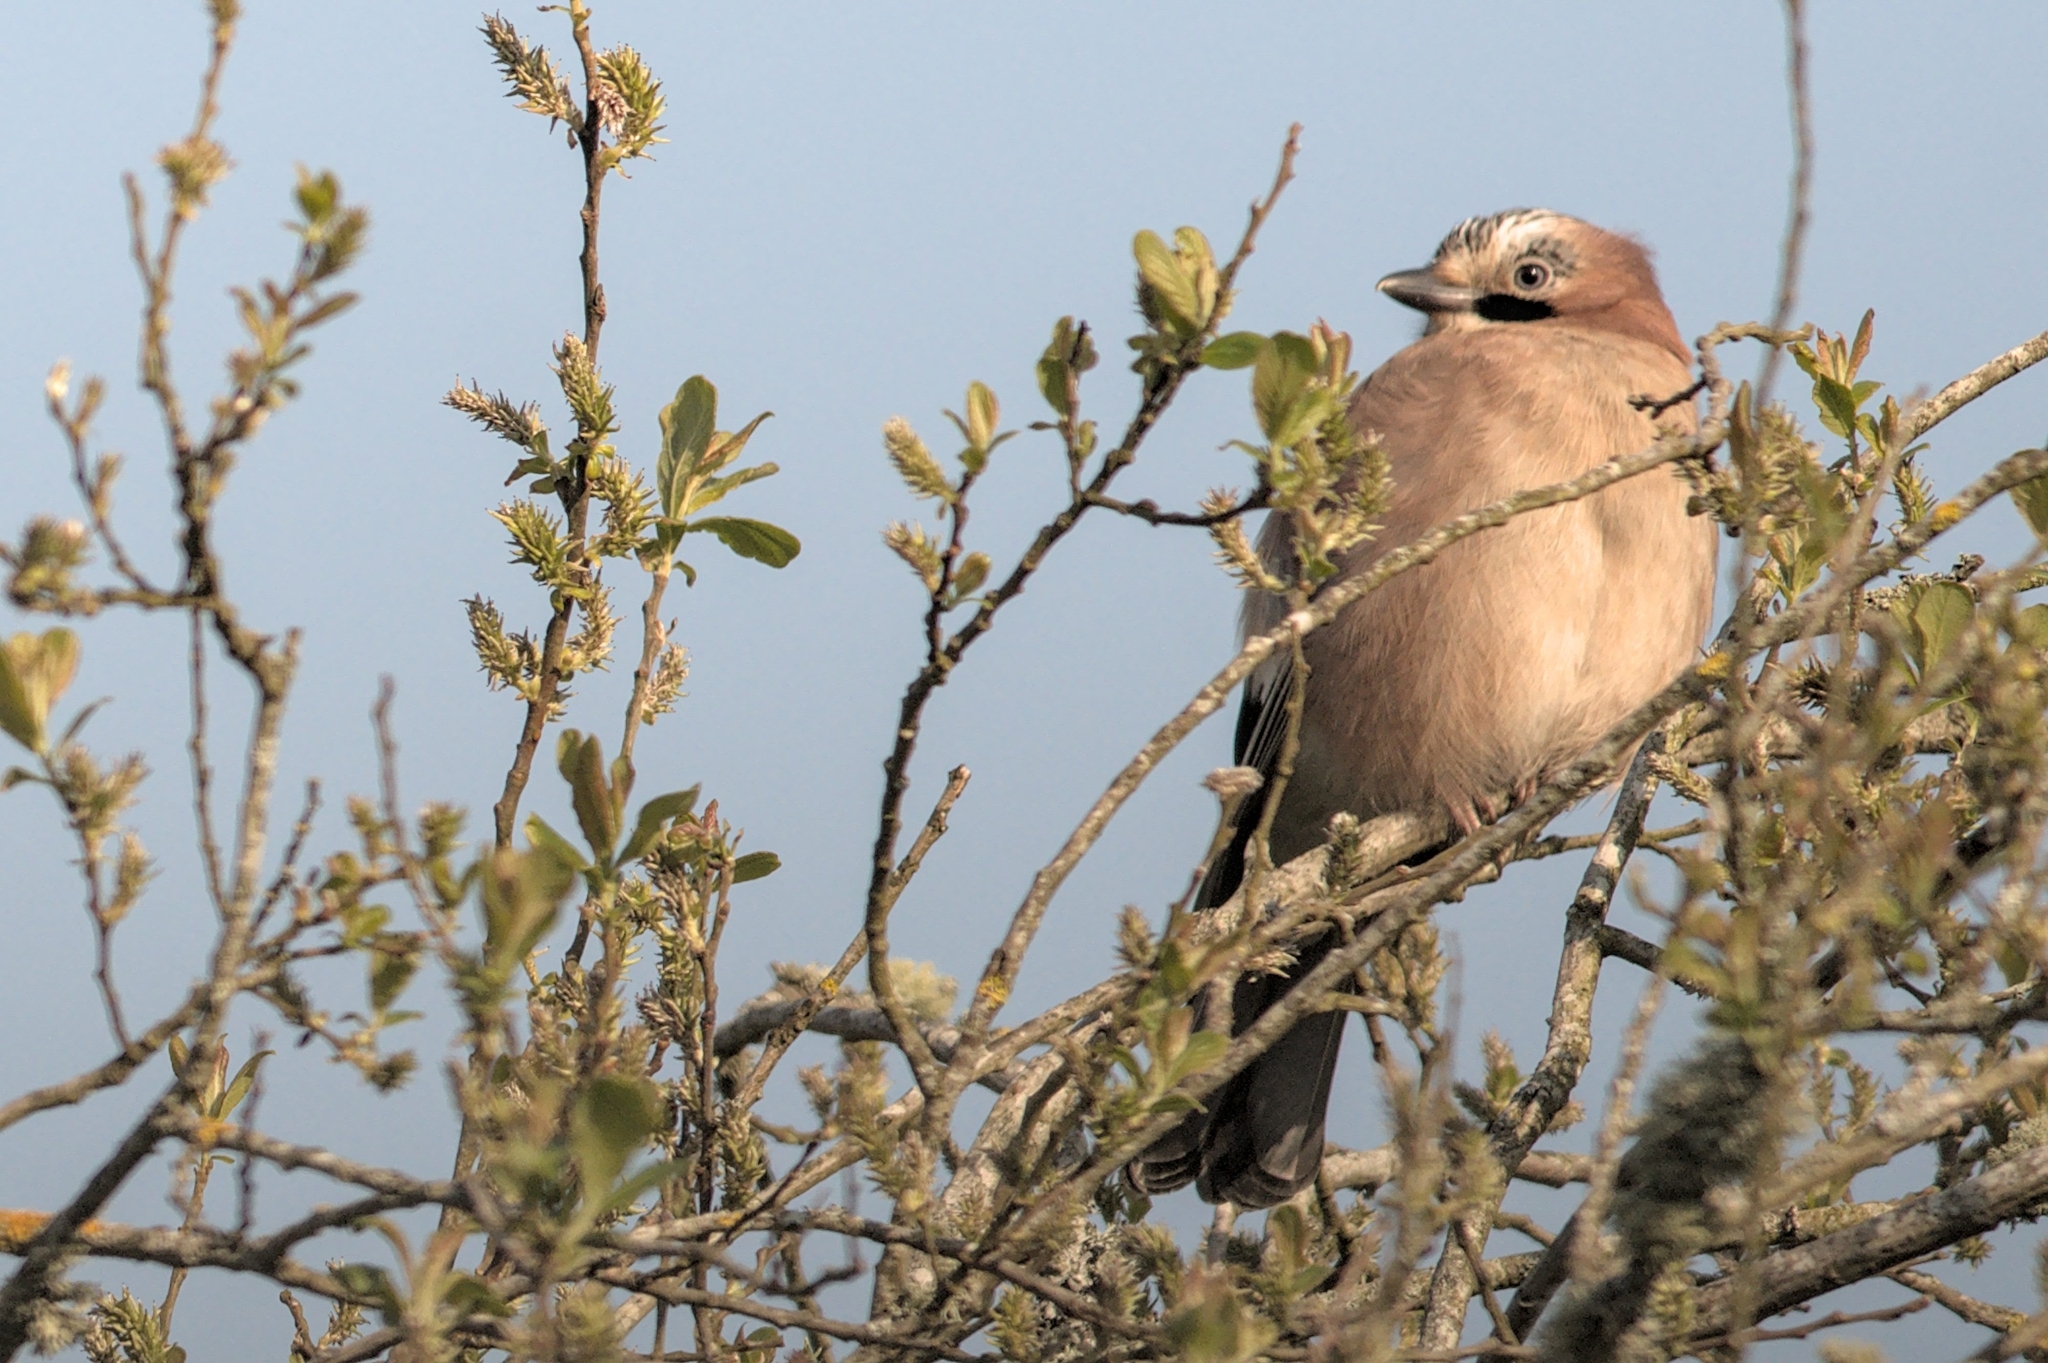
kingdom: Animalia
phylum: Chordata
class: Aves
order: Passeriformes
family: Corvidae
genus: Garrulus
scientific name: Garrulus glandarius
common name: Eurasian jay
